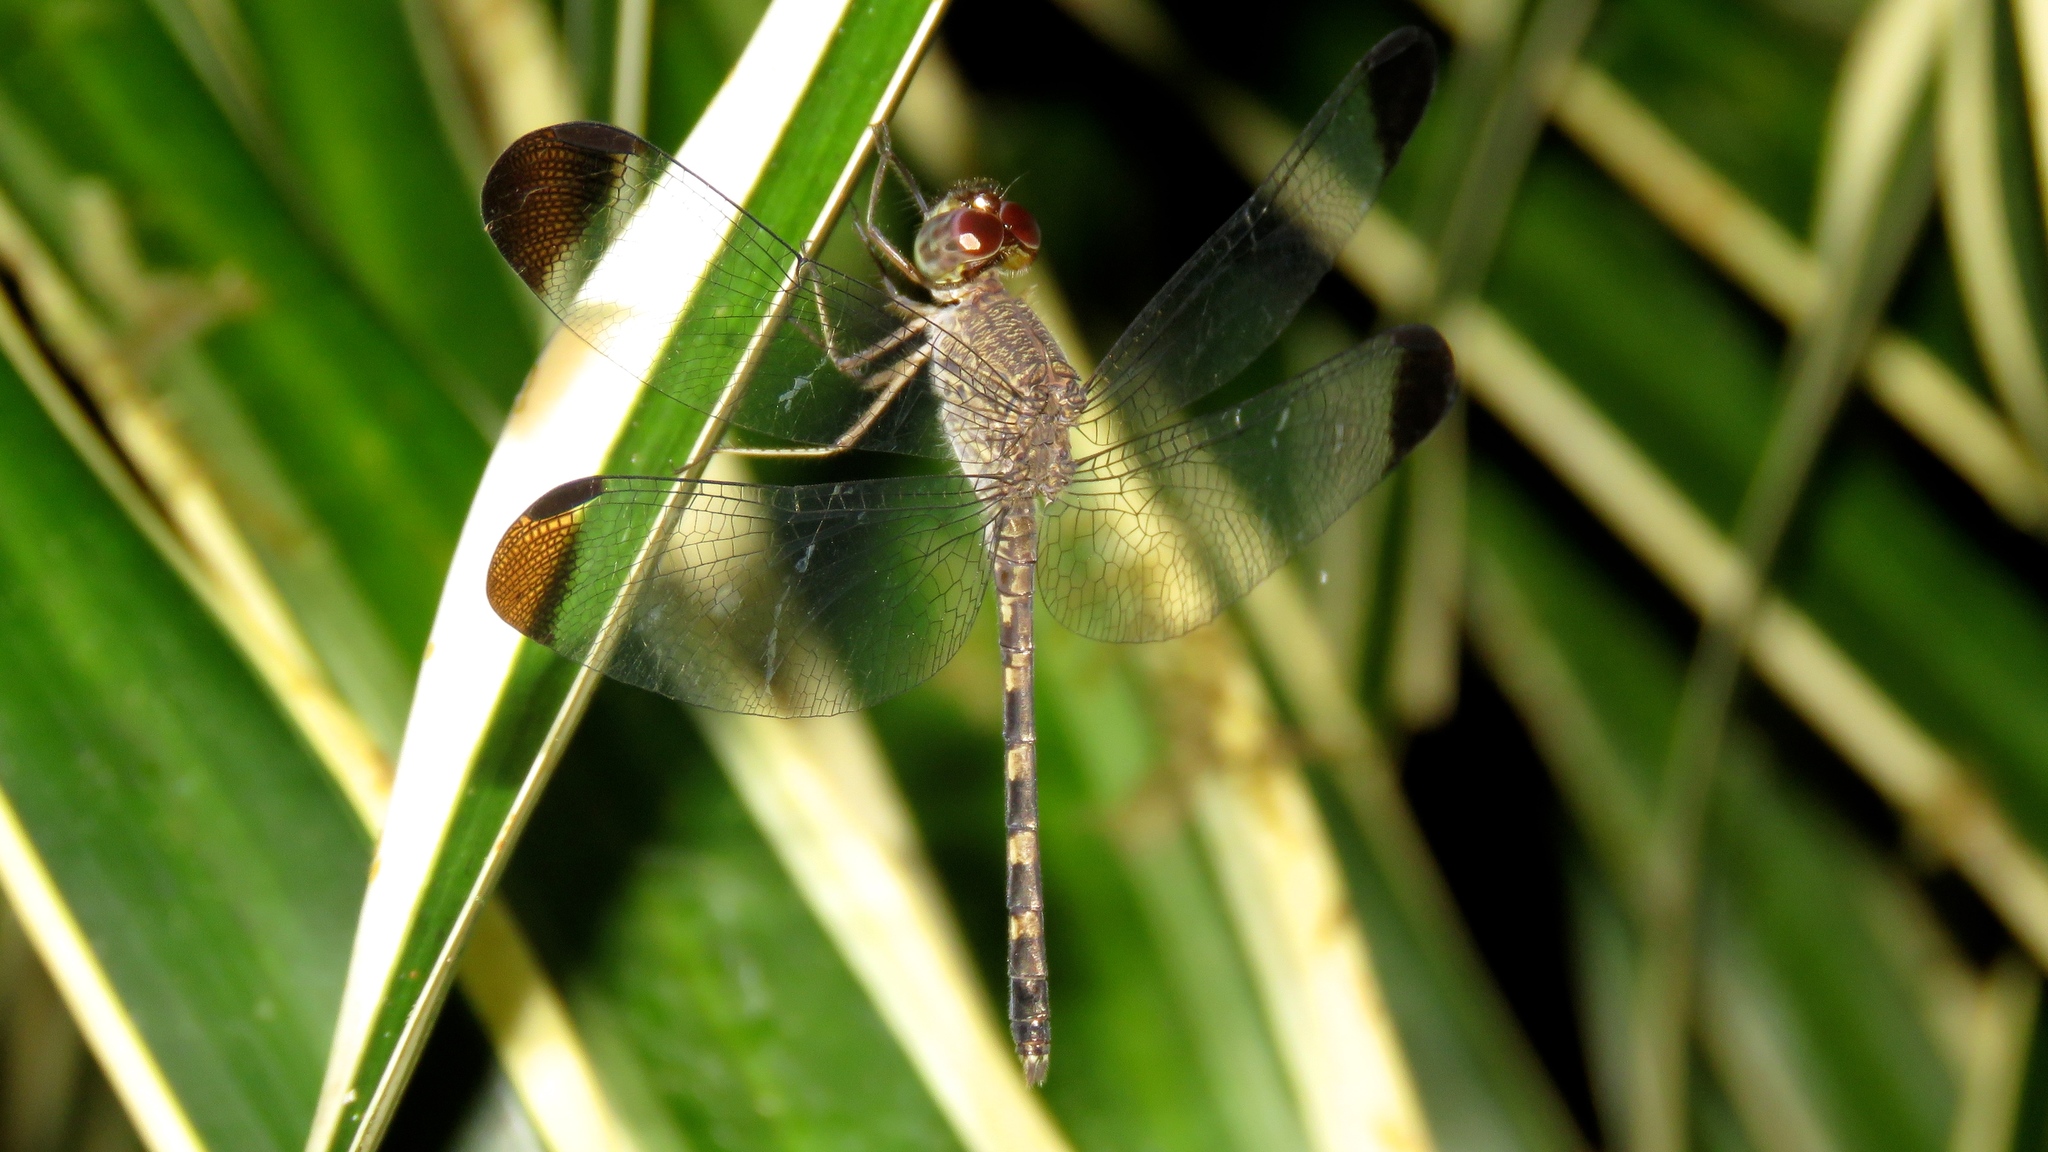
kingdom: Animalia
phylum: Arthropoda
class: Insecta
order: Odonata
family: Libellulidae
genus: Uracis
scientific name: Uracis imbuta
